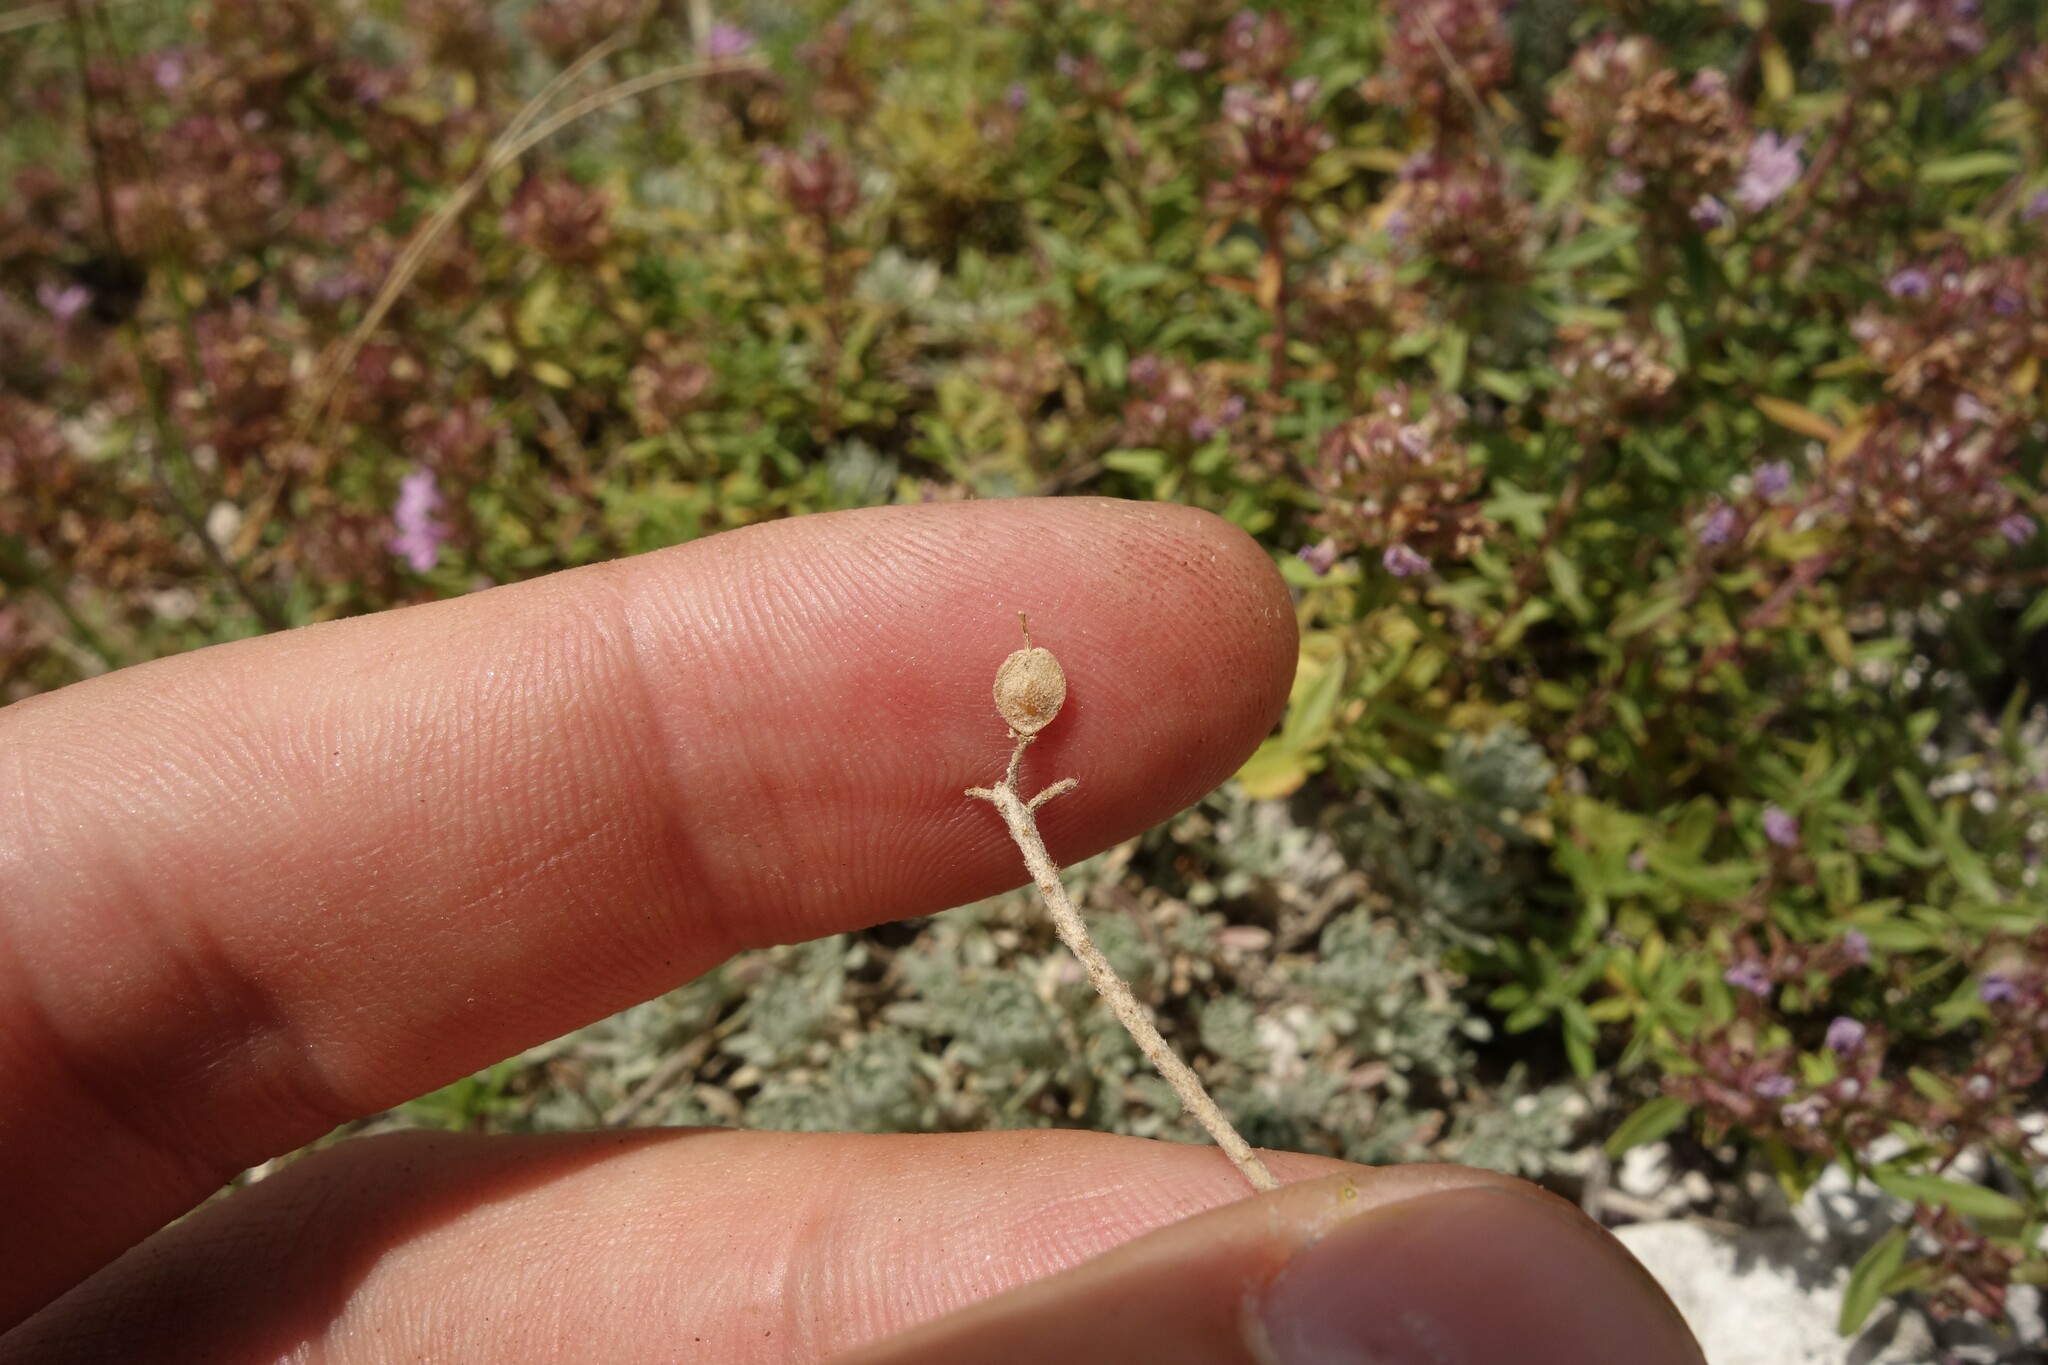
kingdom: Plantae
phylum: Tracheophyta
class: Magnoliopsida
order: Brassicales
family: Brassicaceae
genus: Alyssum
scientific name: Alyssum lenense
